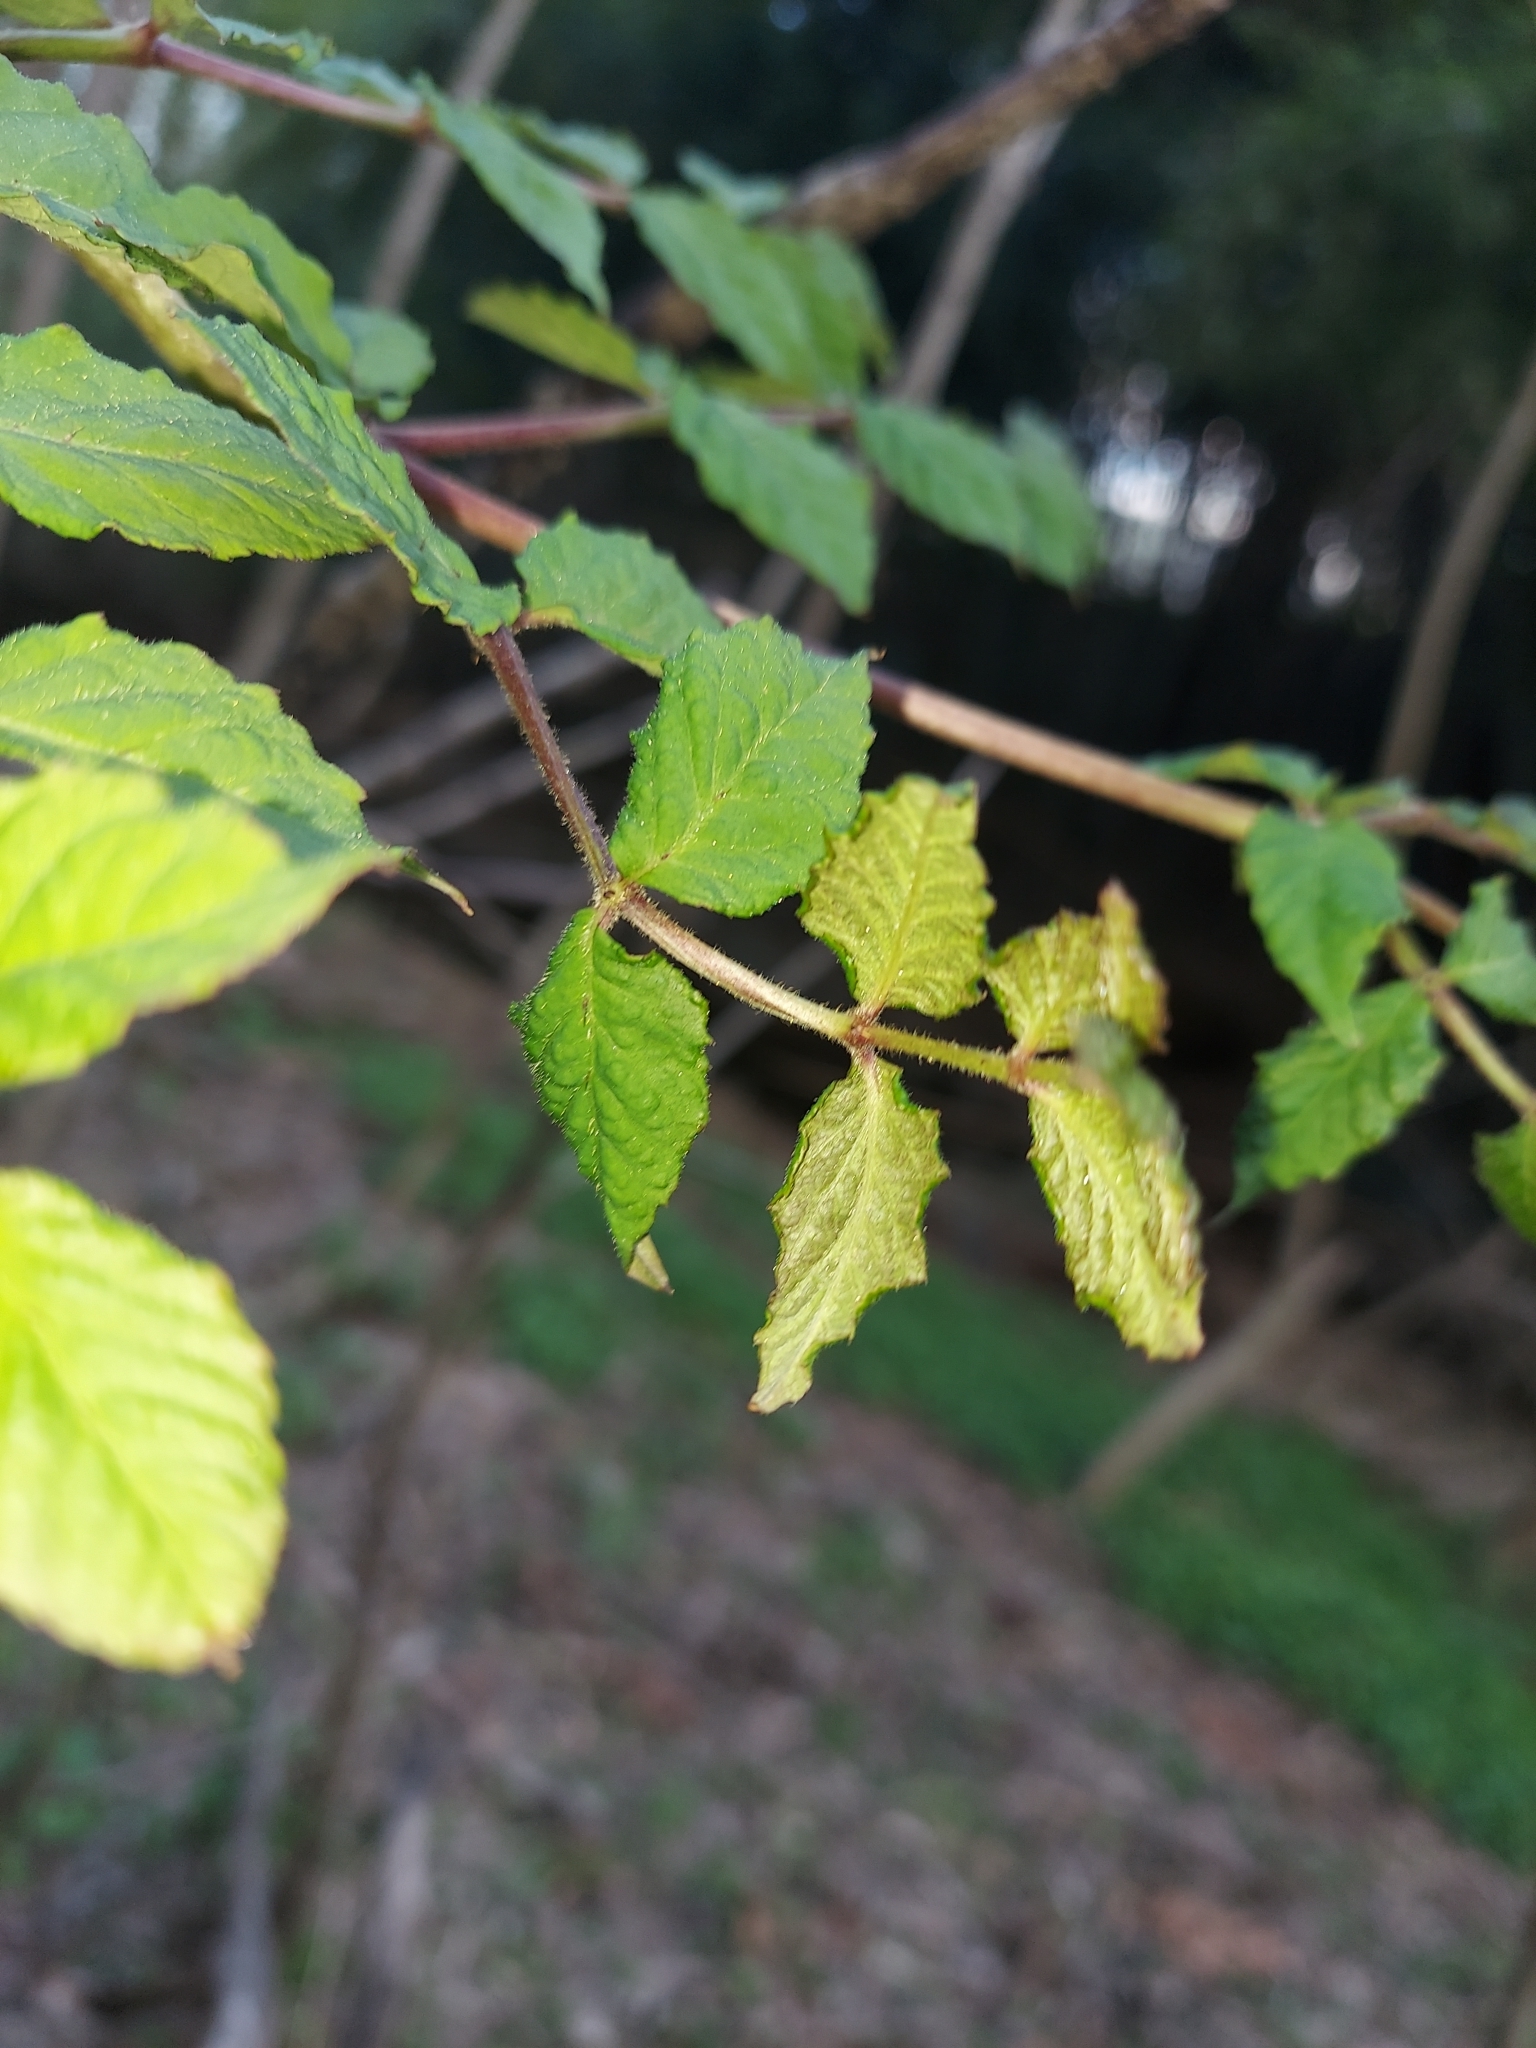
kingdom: Plantae
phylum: Tracheophyta
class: Magnoliopsida
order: Apiales
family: Araliaceae
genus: Aralia
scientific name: Aralia elata
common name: Japanese angelica-tree
